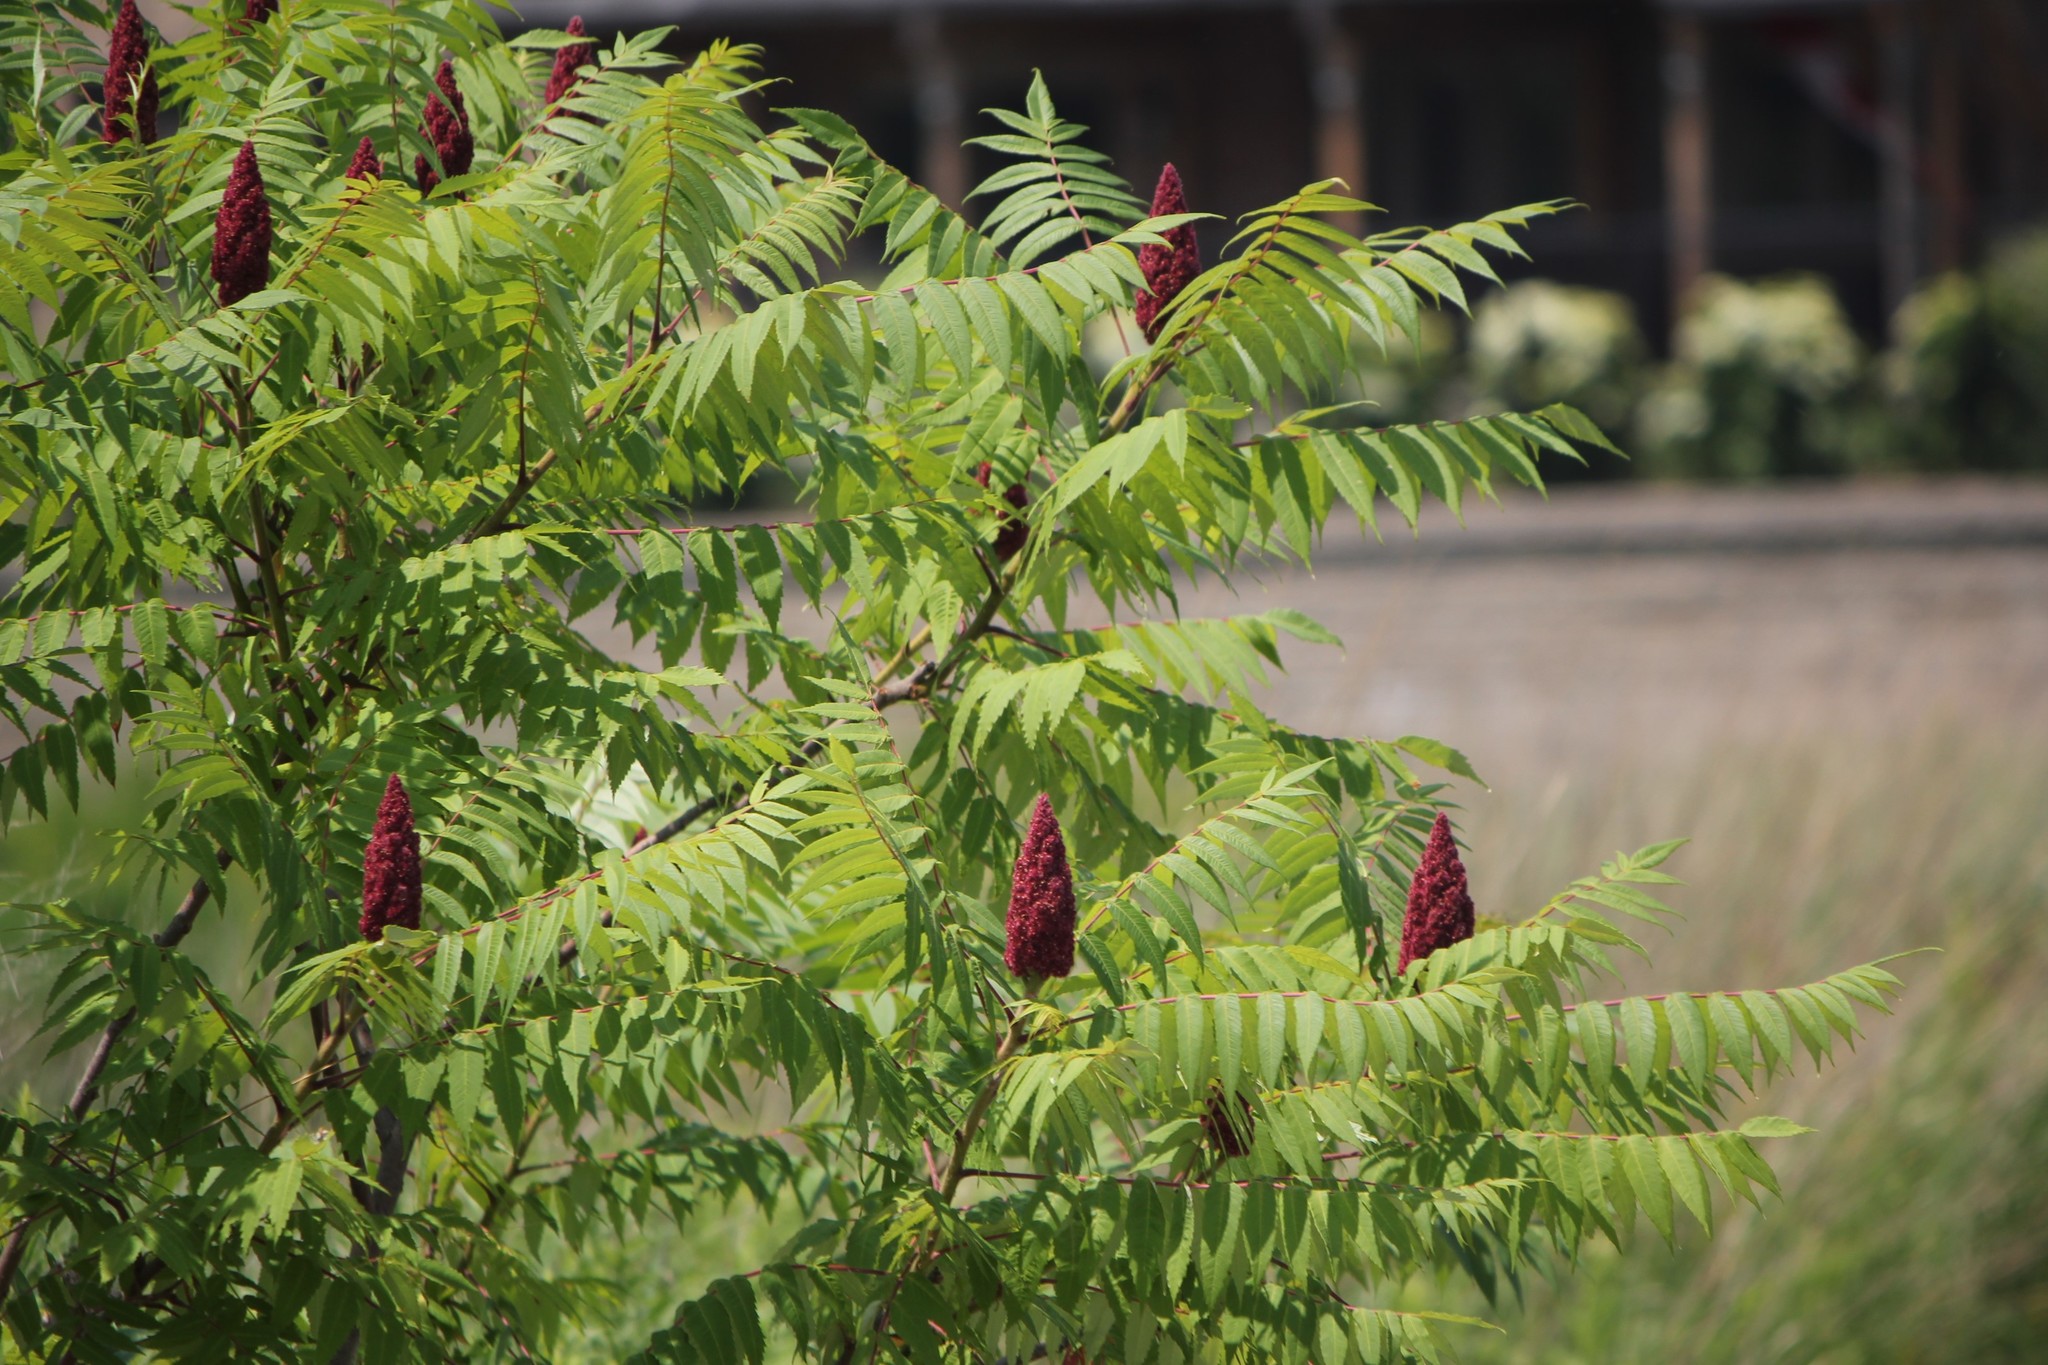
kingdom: Plantae
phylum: Tracheophyta
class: Magnoliopsida
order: Sapindales
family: Anacardiaceae
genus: Rhus
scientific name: Rhus typhina
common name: Staghorn sumac
